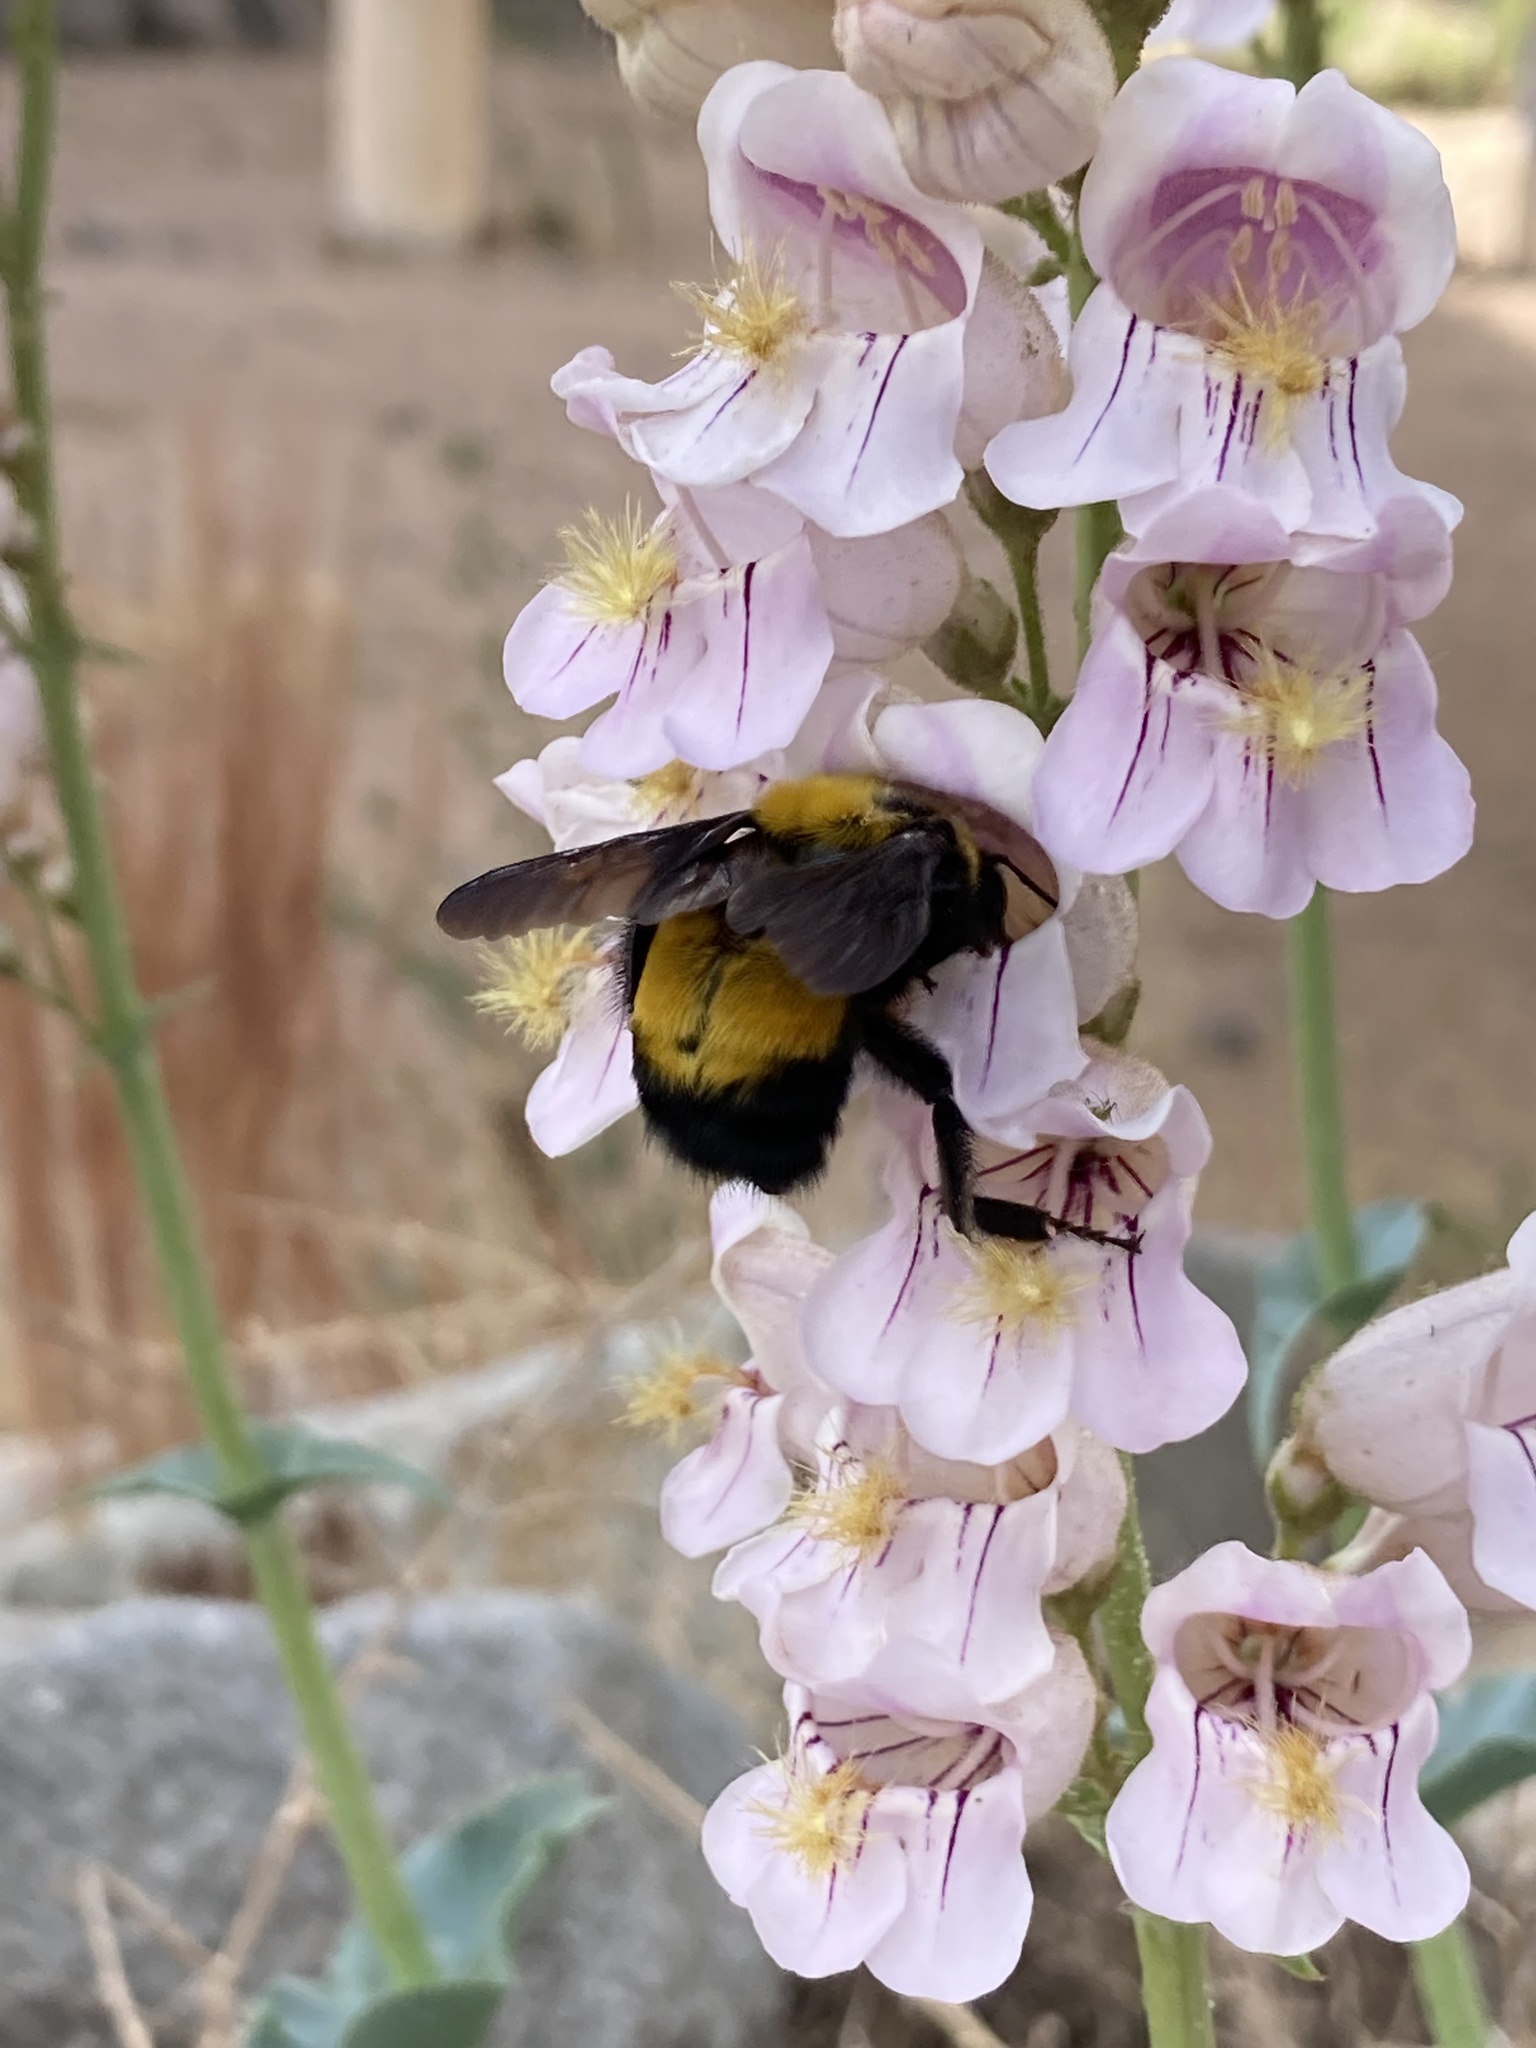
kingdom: Animalia
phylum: Arthropoda
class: Insecta
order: Hymenoptera
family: Apidae
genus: Bombus
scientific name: Bombus morrisoni
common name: Morrison bumble bee
